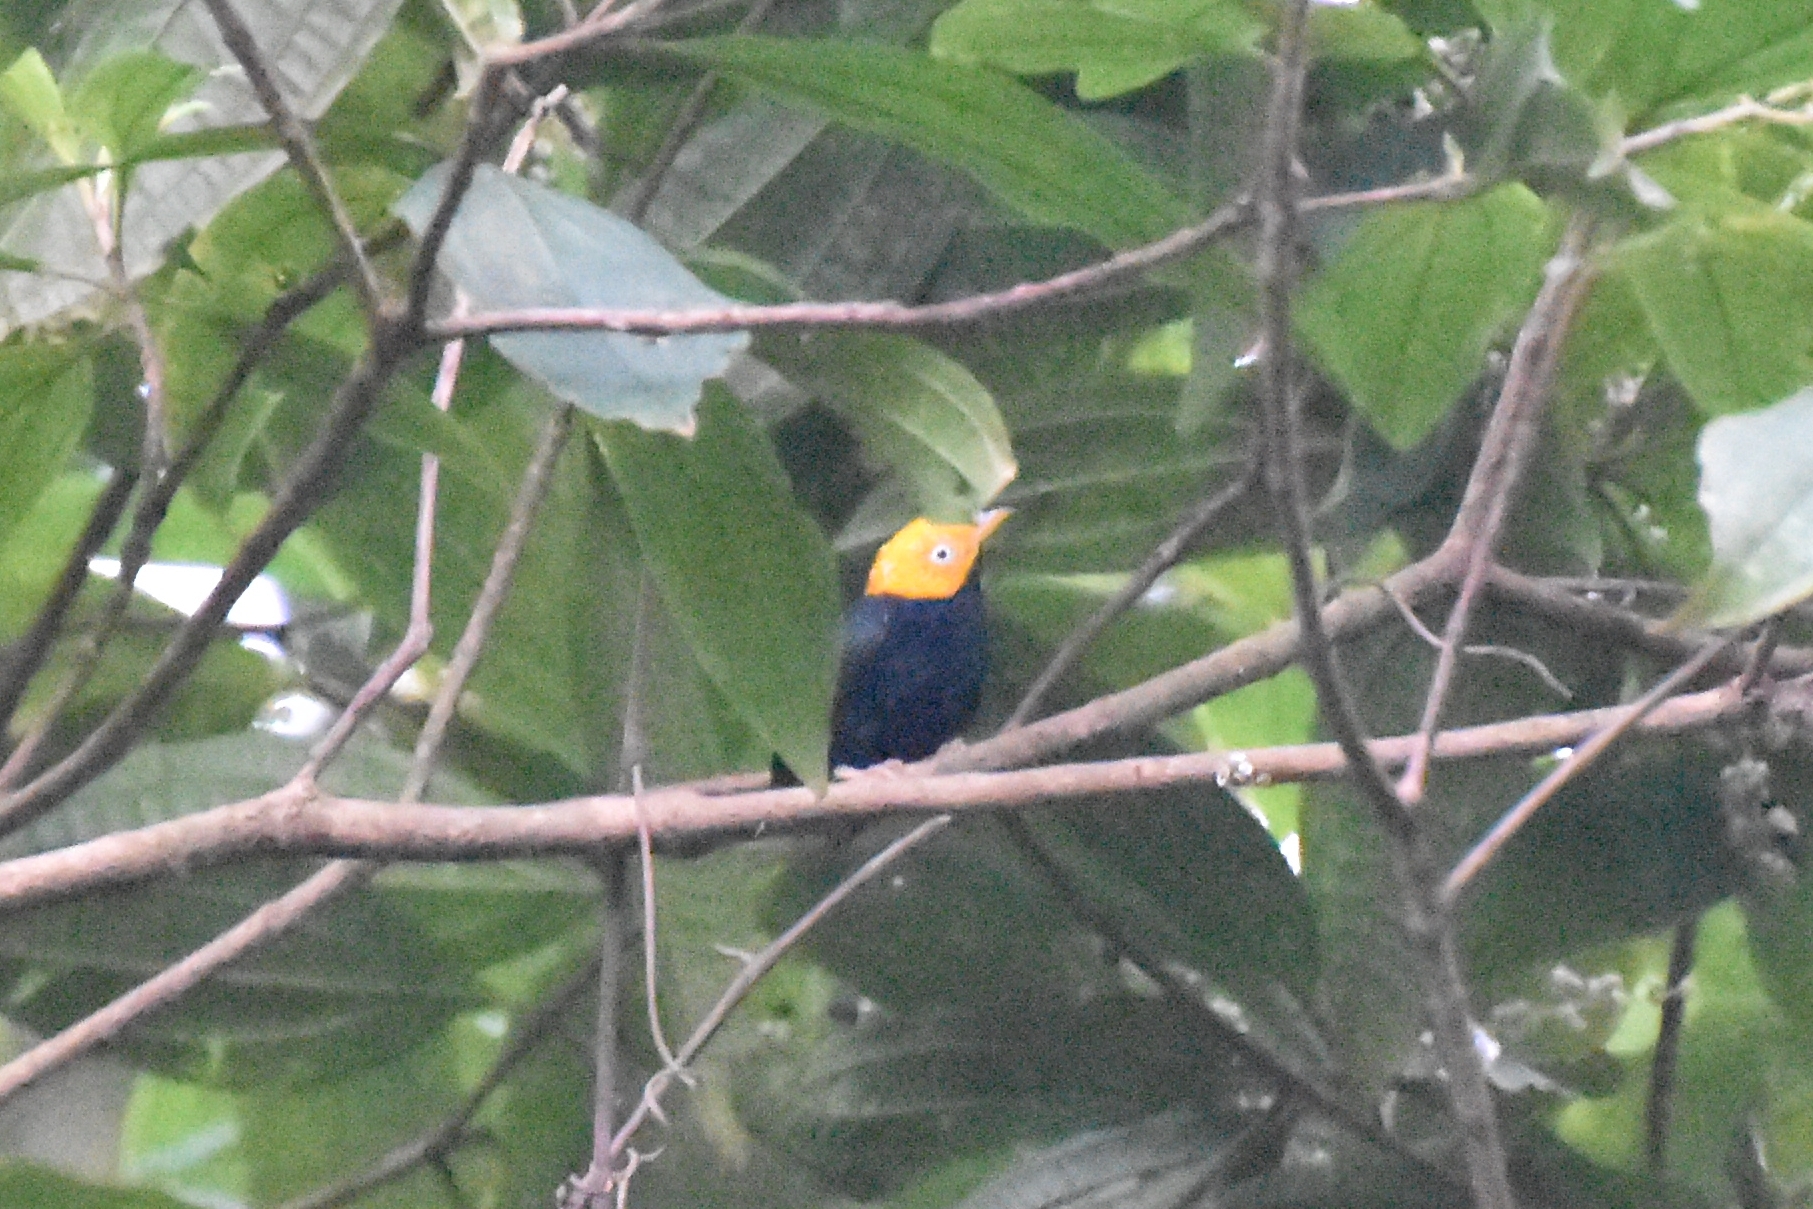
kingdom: Animalia
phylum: Chordata
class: Aves
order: Passeriformes
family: Pipridae
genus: Pipra
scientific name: Pipra erythrocephala
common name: Golden-headed manakin
